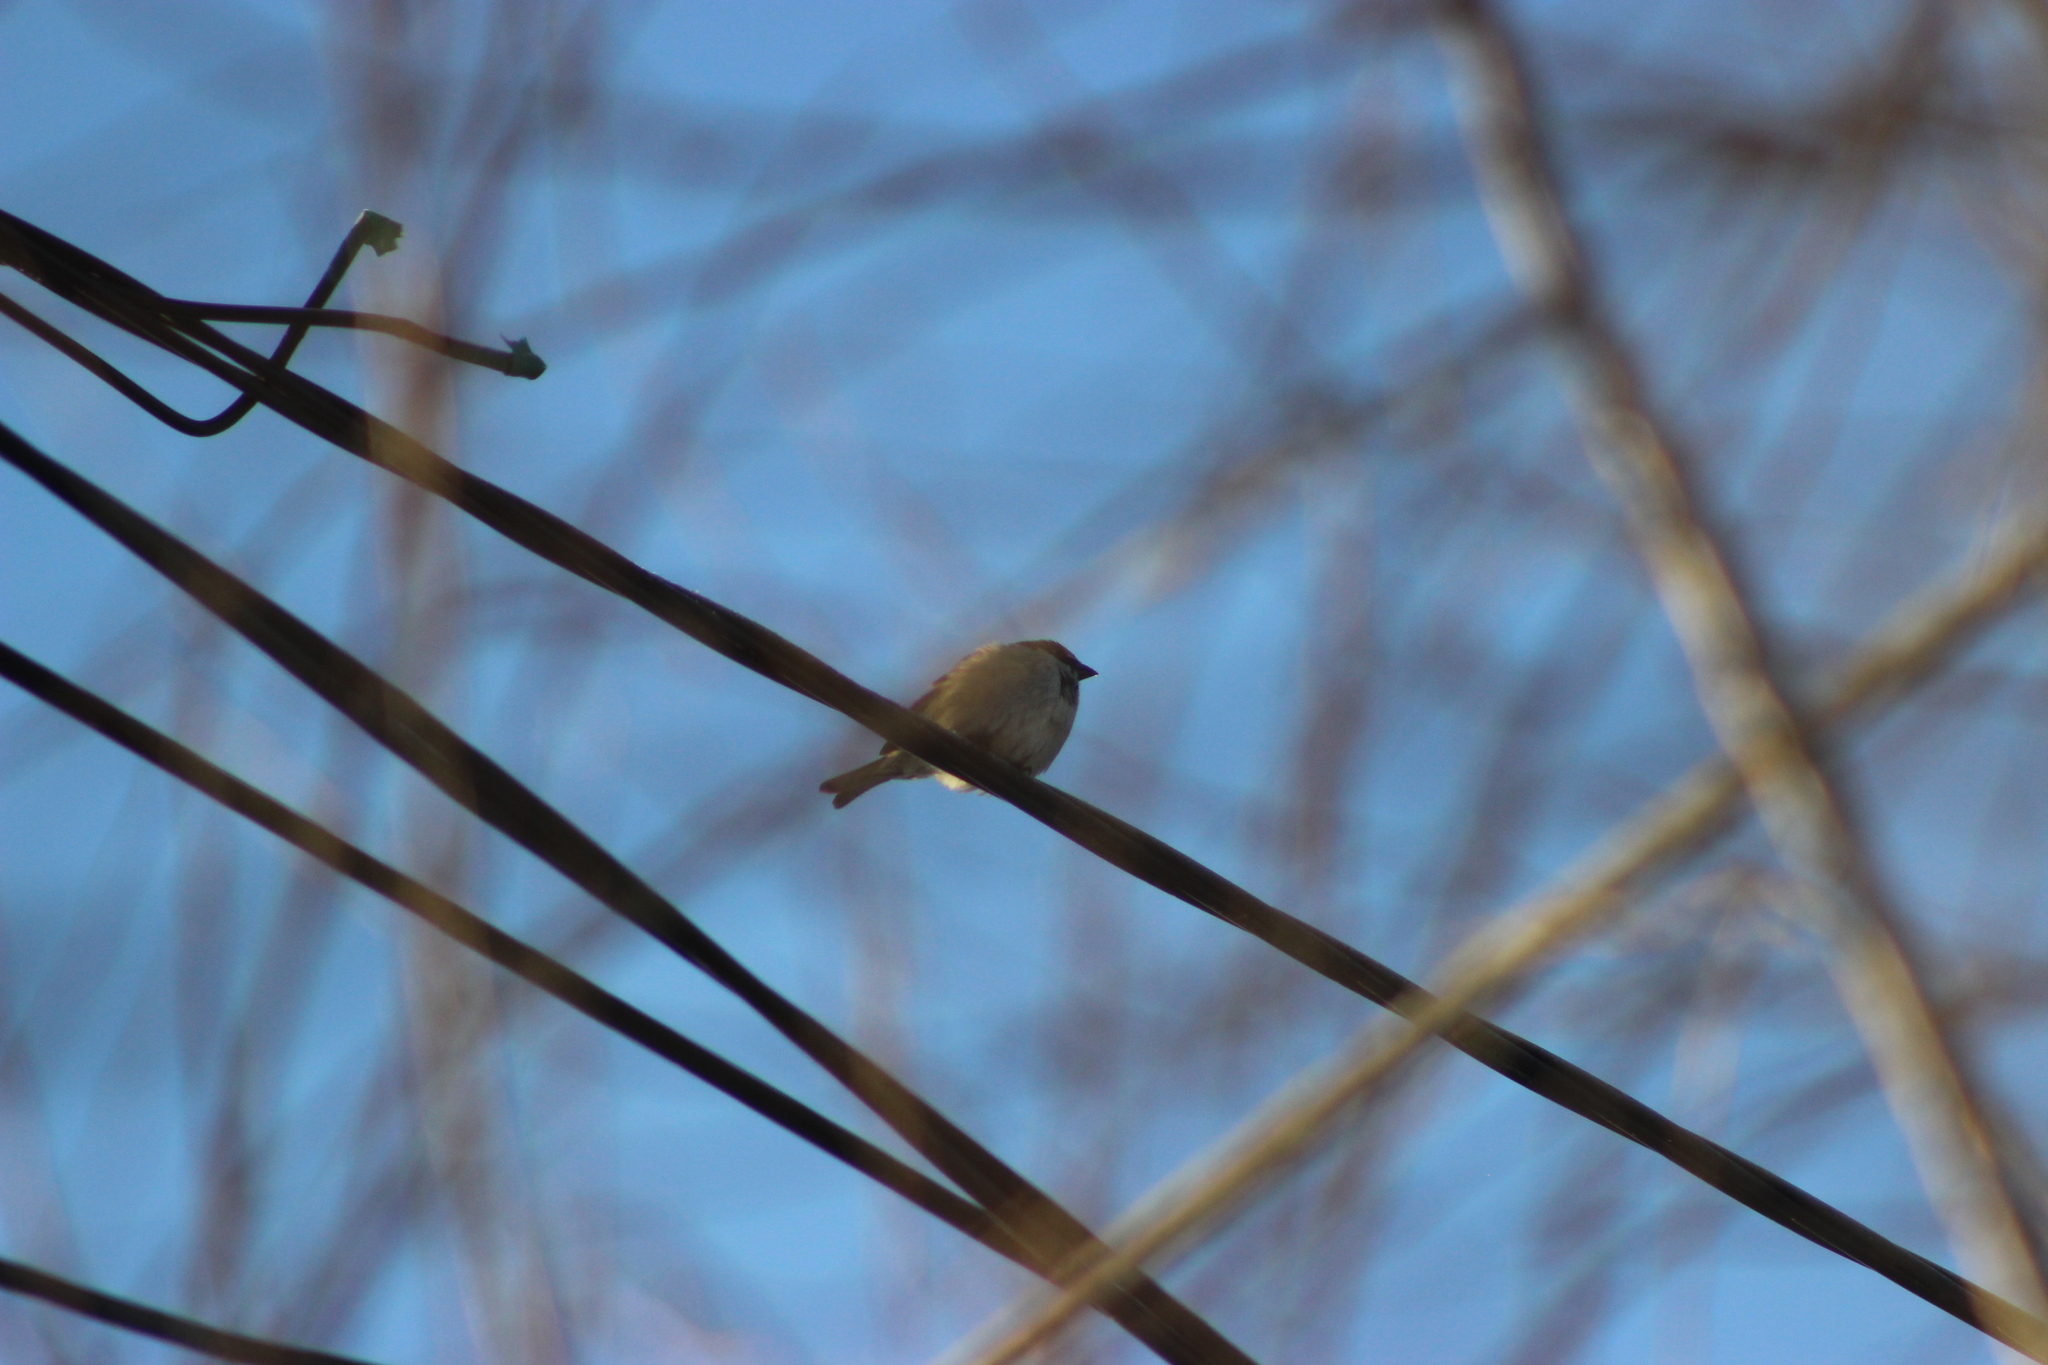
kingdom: Animalia
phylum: Chordata
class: Aves
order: Passeriformes
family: Passeridae
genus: Passer
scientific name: Passer domesticus
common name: House sparrow
